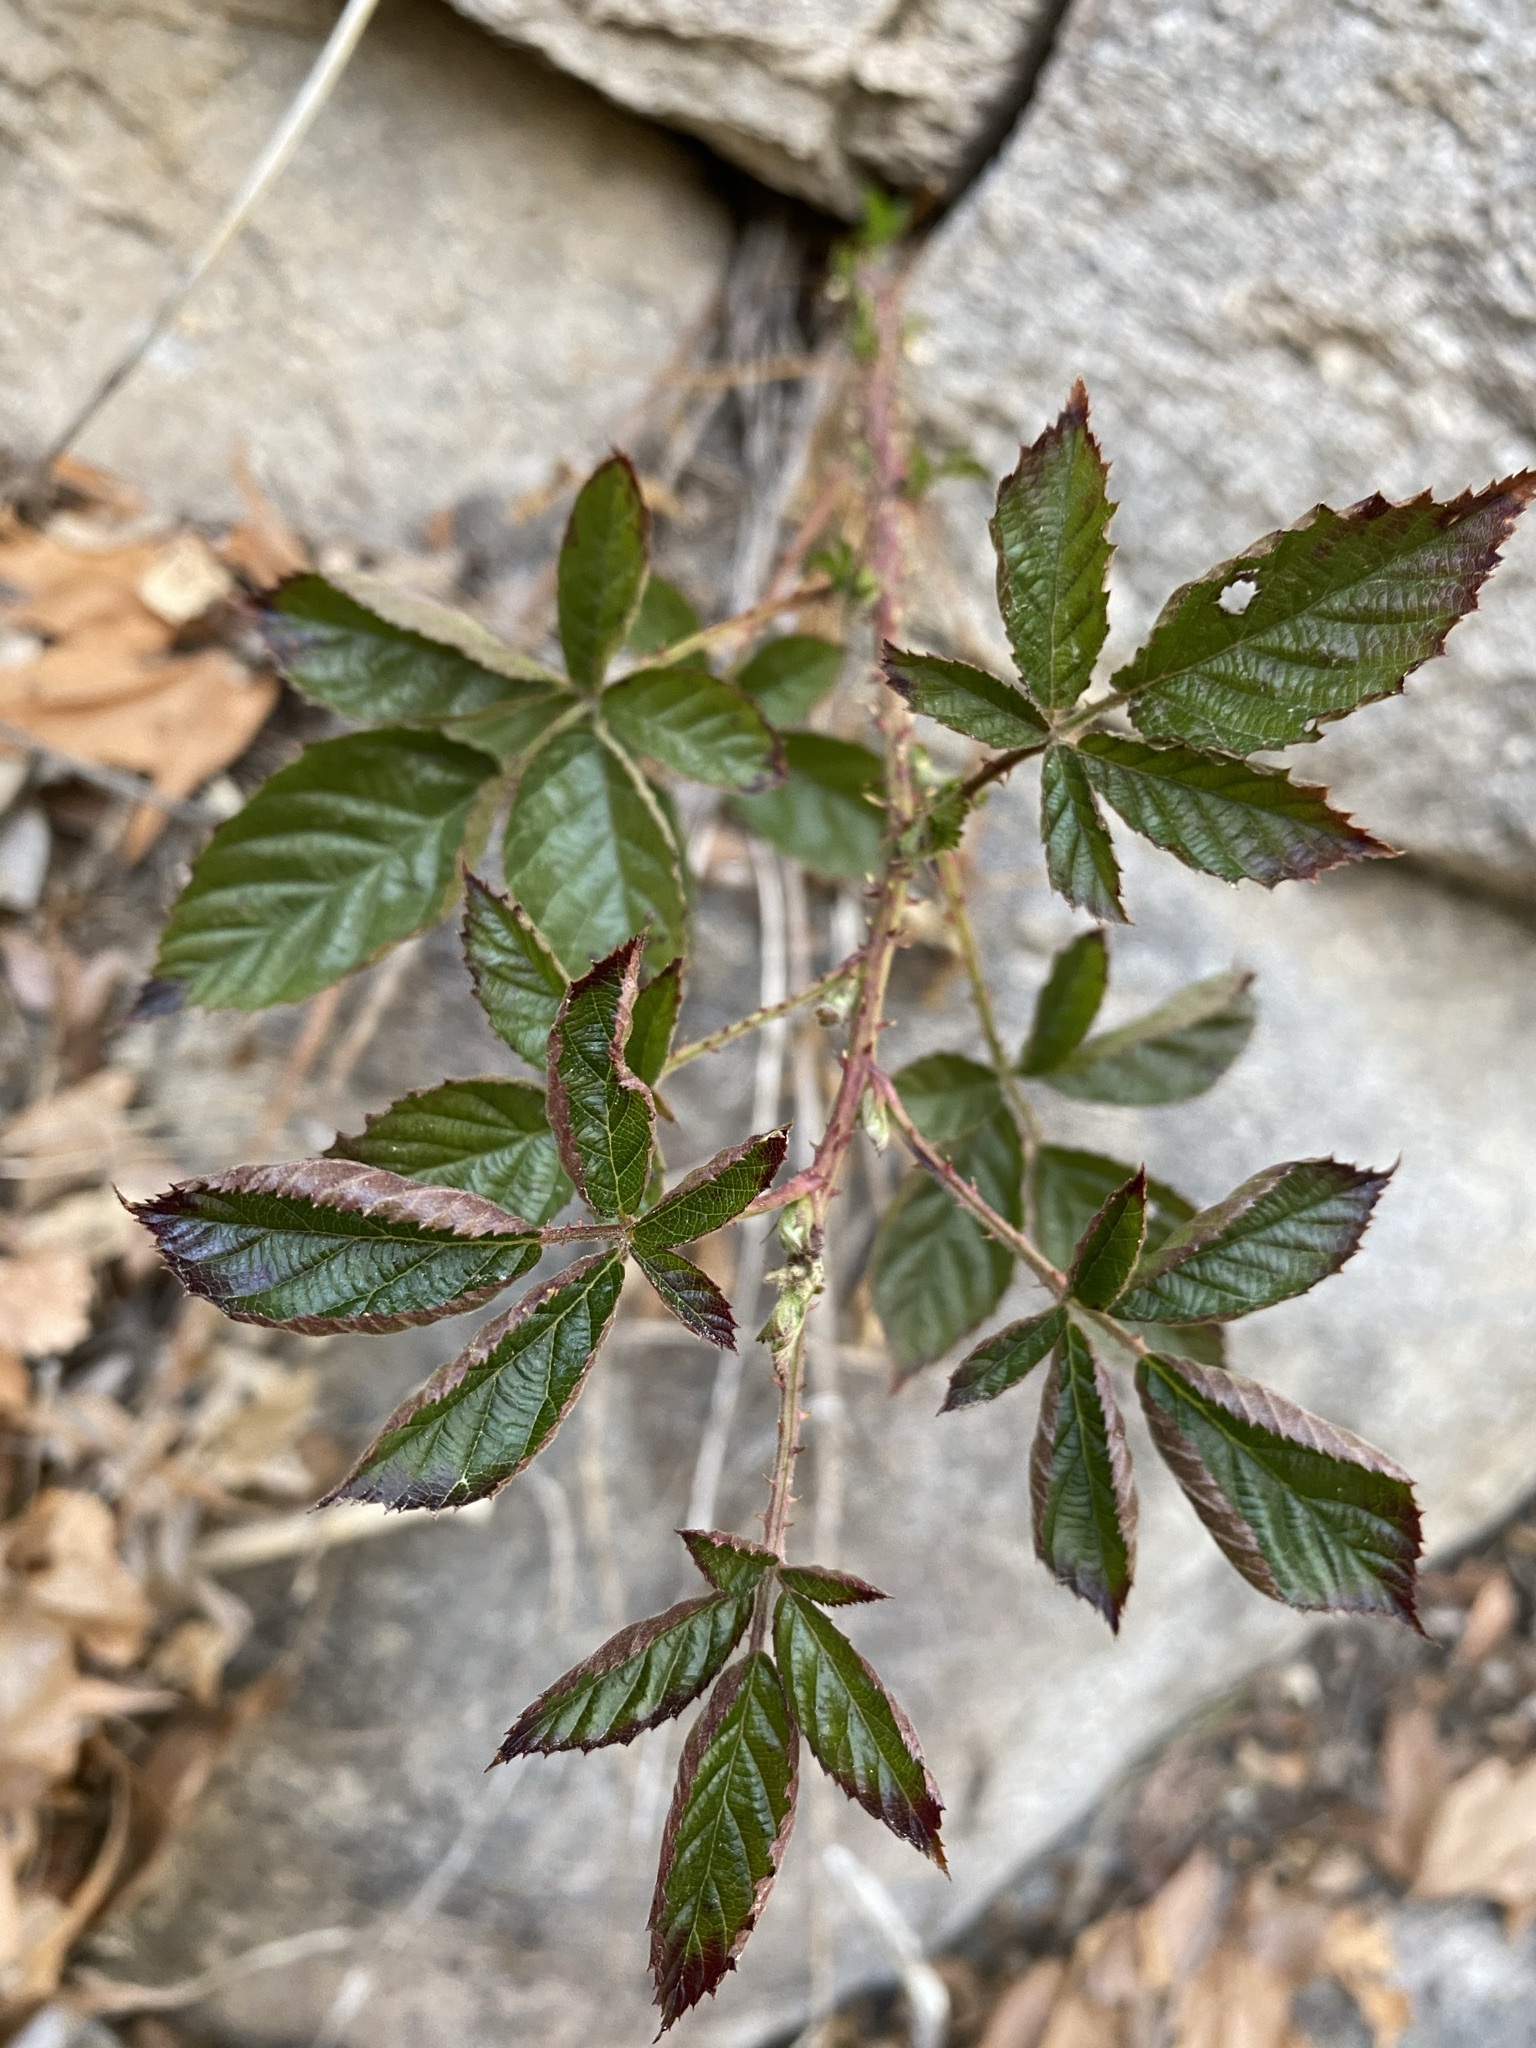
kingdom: Plantae
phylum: Tracheophyta
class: Magnoliopsida
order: Rosales
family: Rosaceae
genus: Rubus
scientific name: Rubus arizonensis
